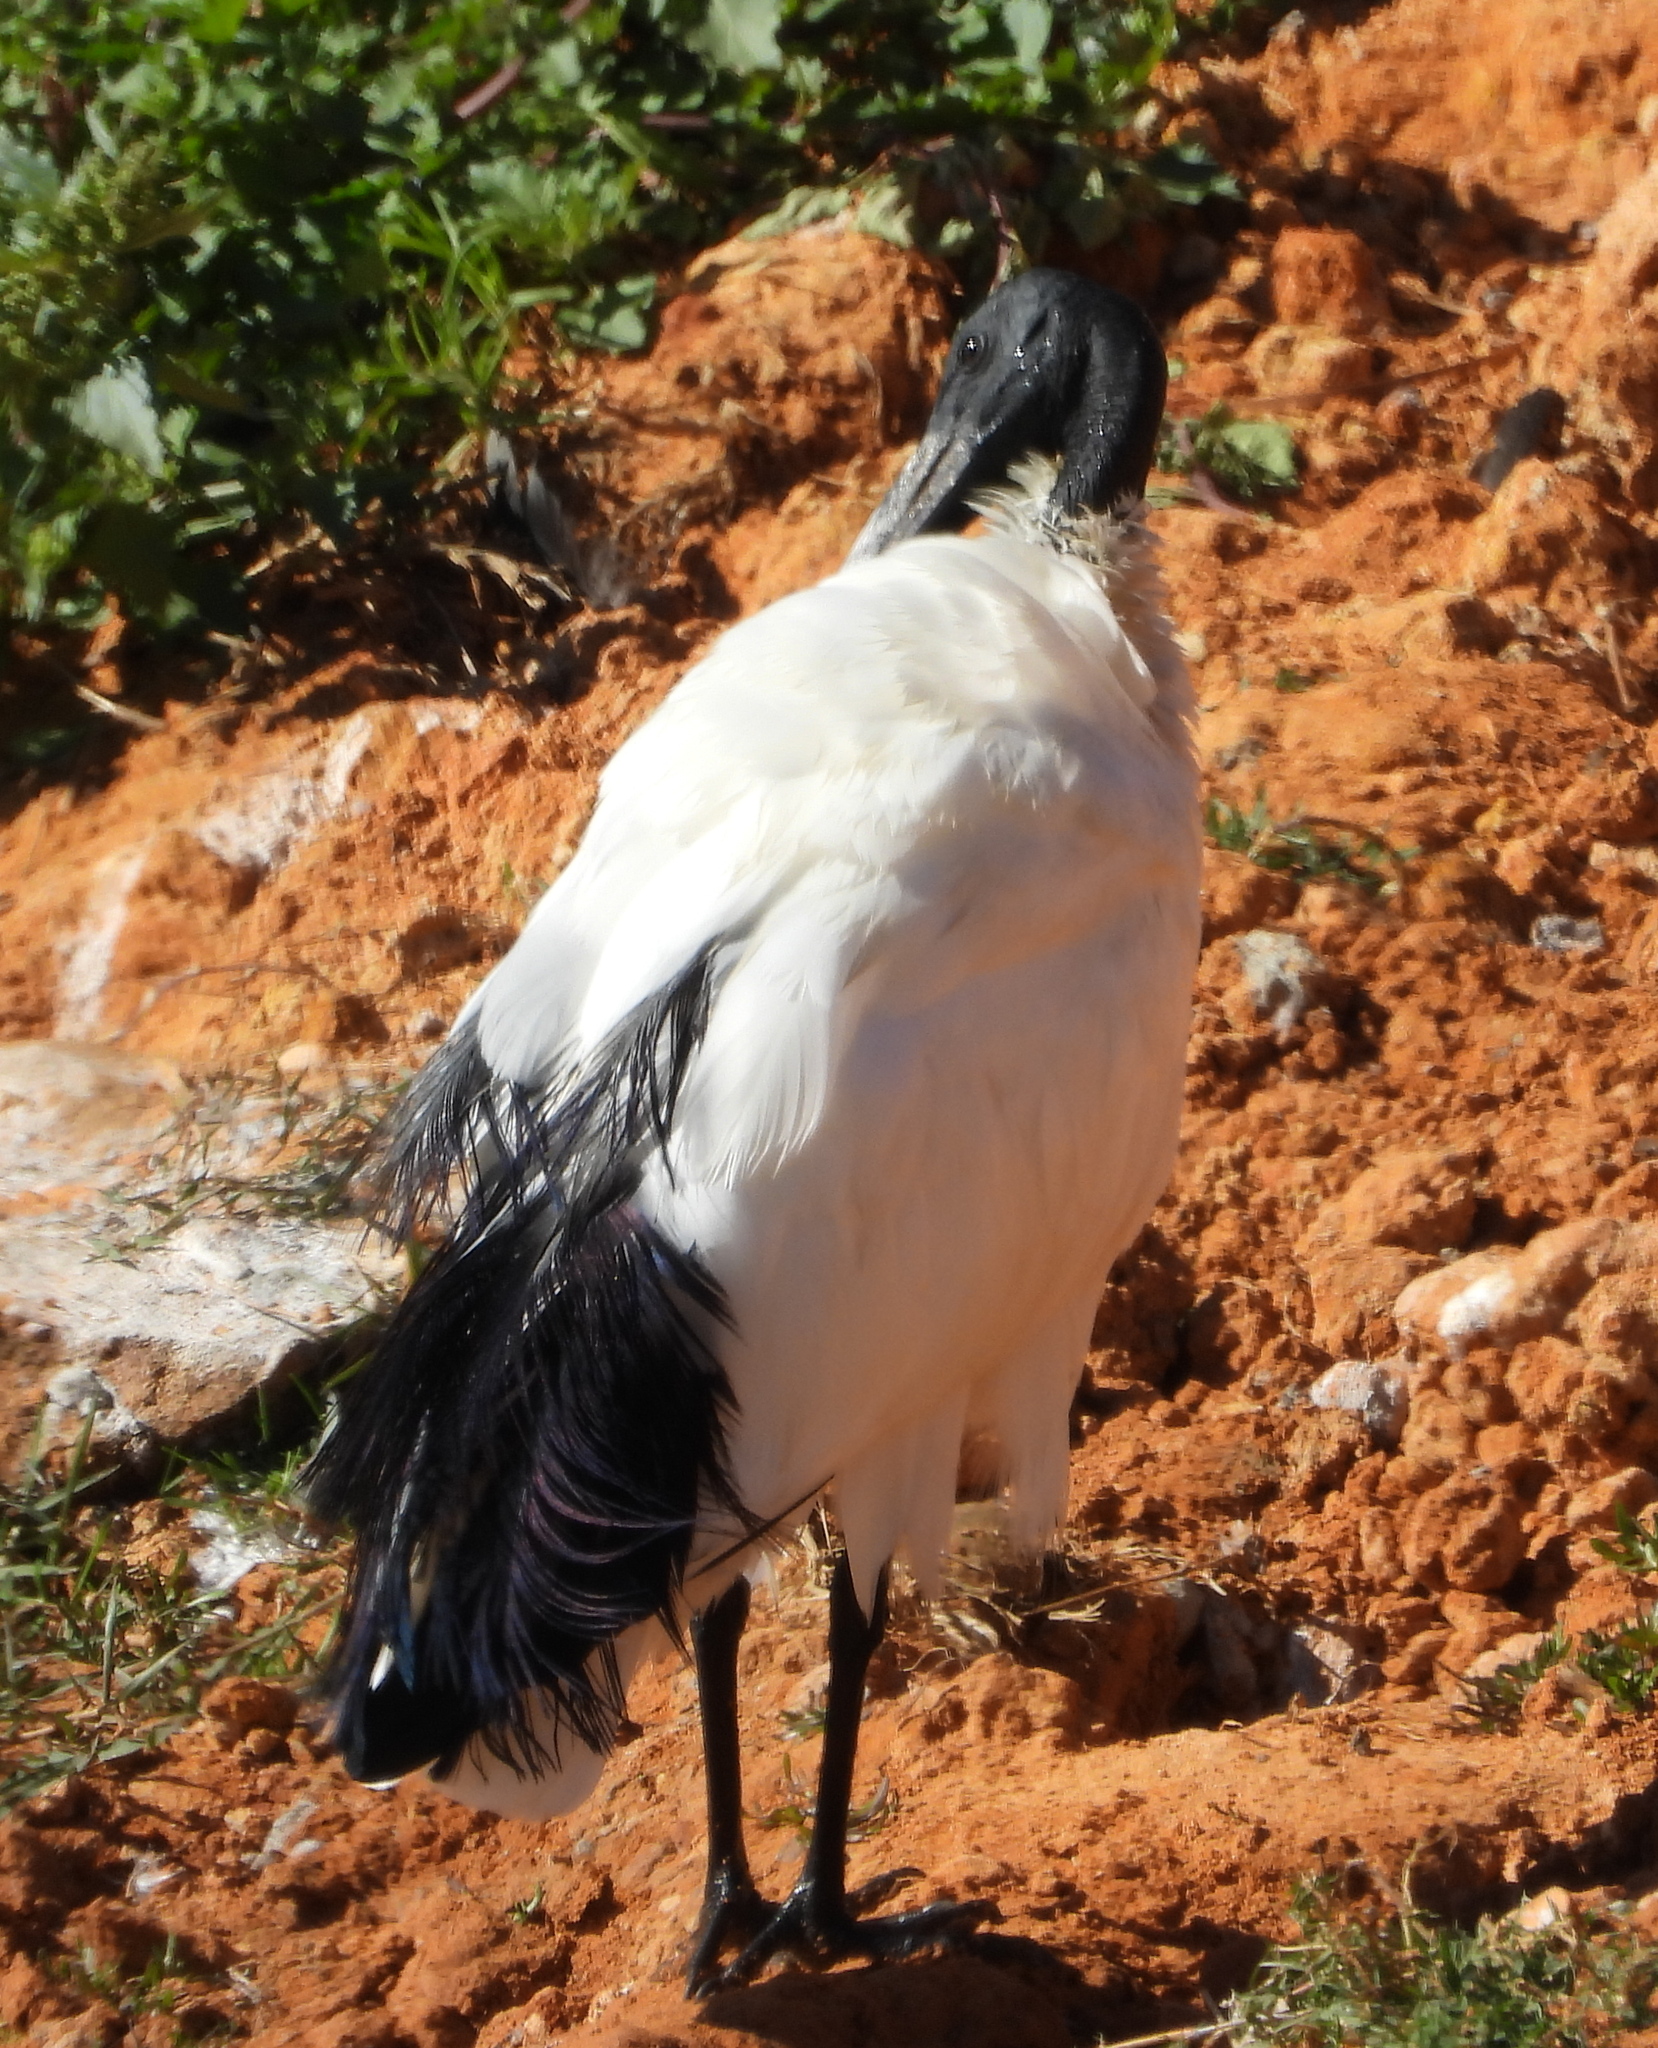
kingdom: Animalia
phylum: Chordata
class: Aves
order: Pelecaniformes
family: Threskiornithidae
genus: Threskiornis
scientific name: Threskiornis aethiopicus
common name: Sacred ibis
